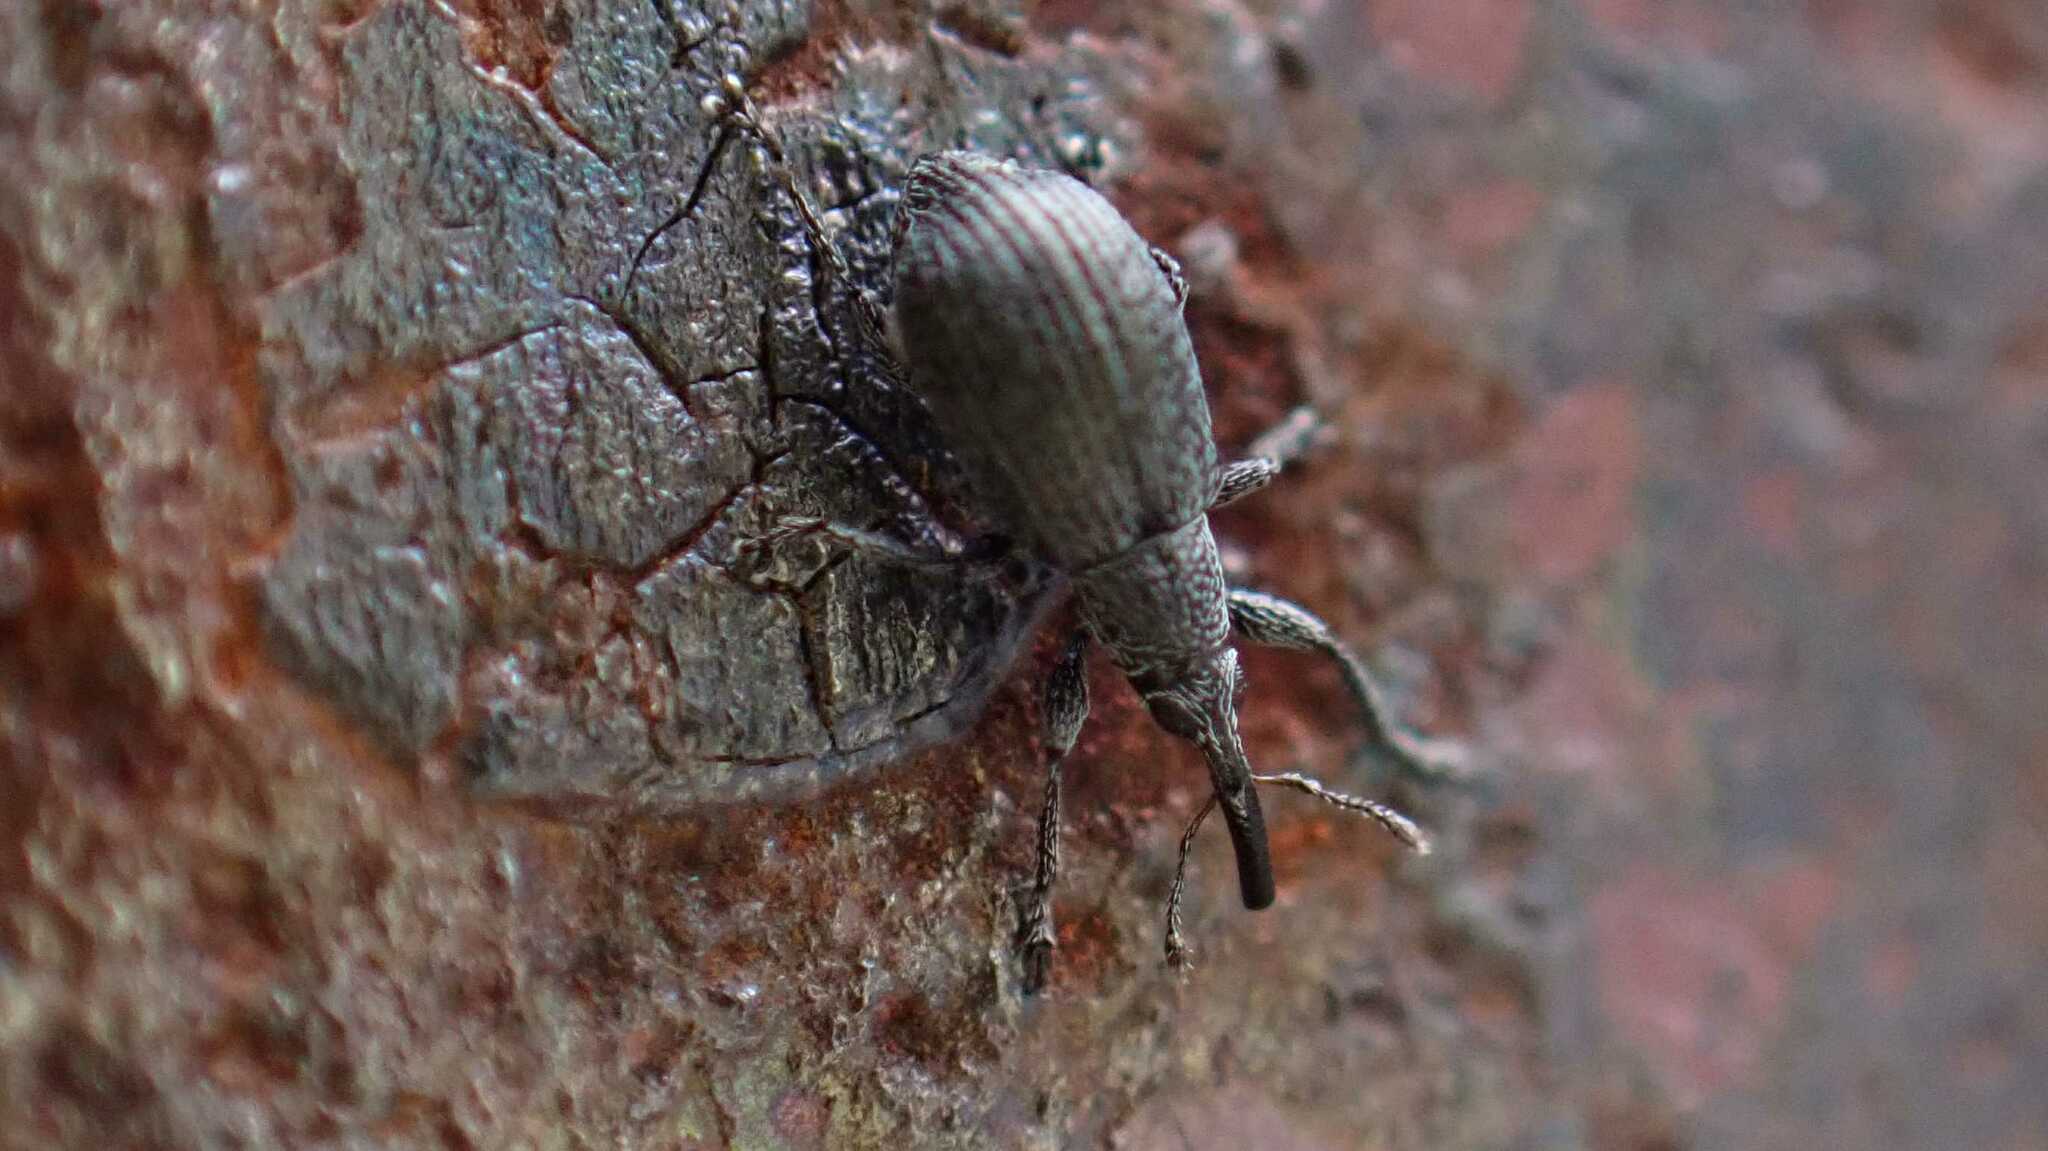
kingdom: Animalia
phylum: Arthropoda
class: Insecta
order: Coleoptera
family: Brentidae
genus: Betulapion
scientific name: Betulapion simile
